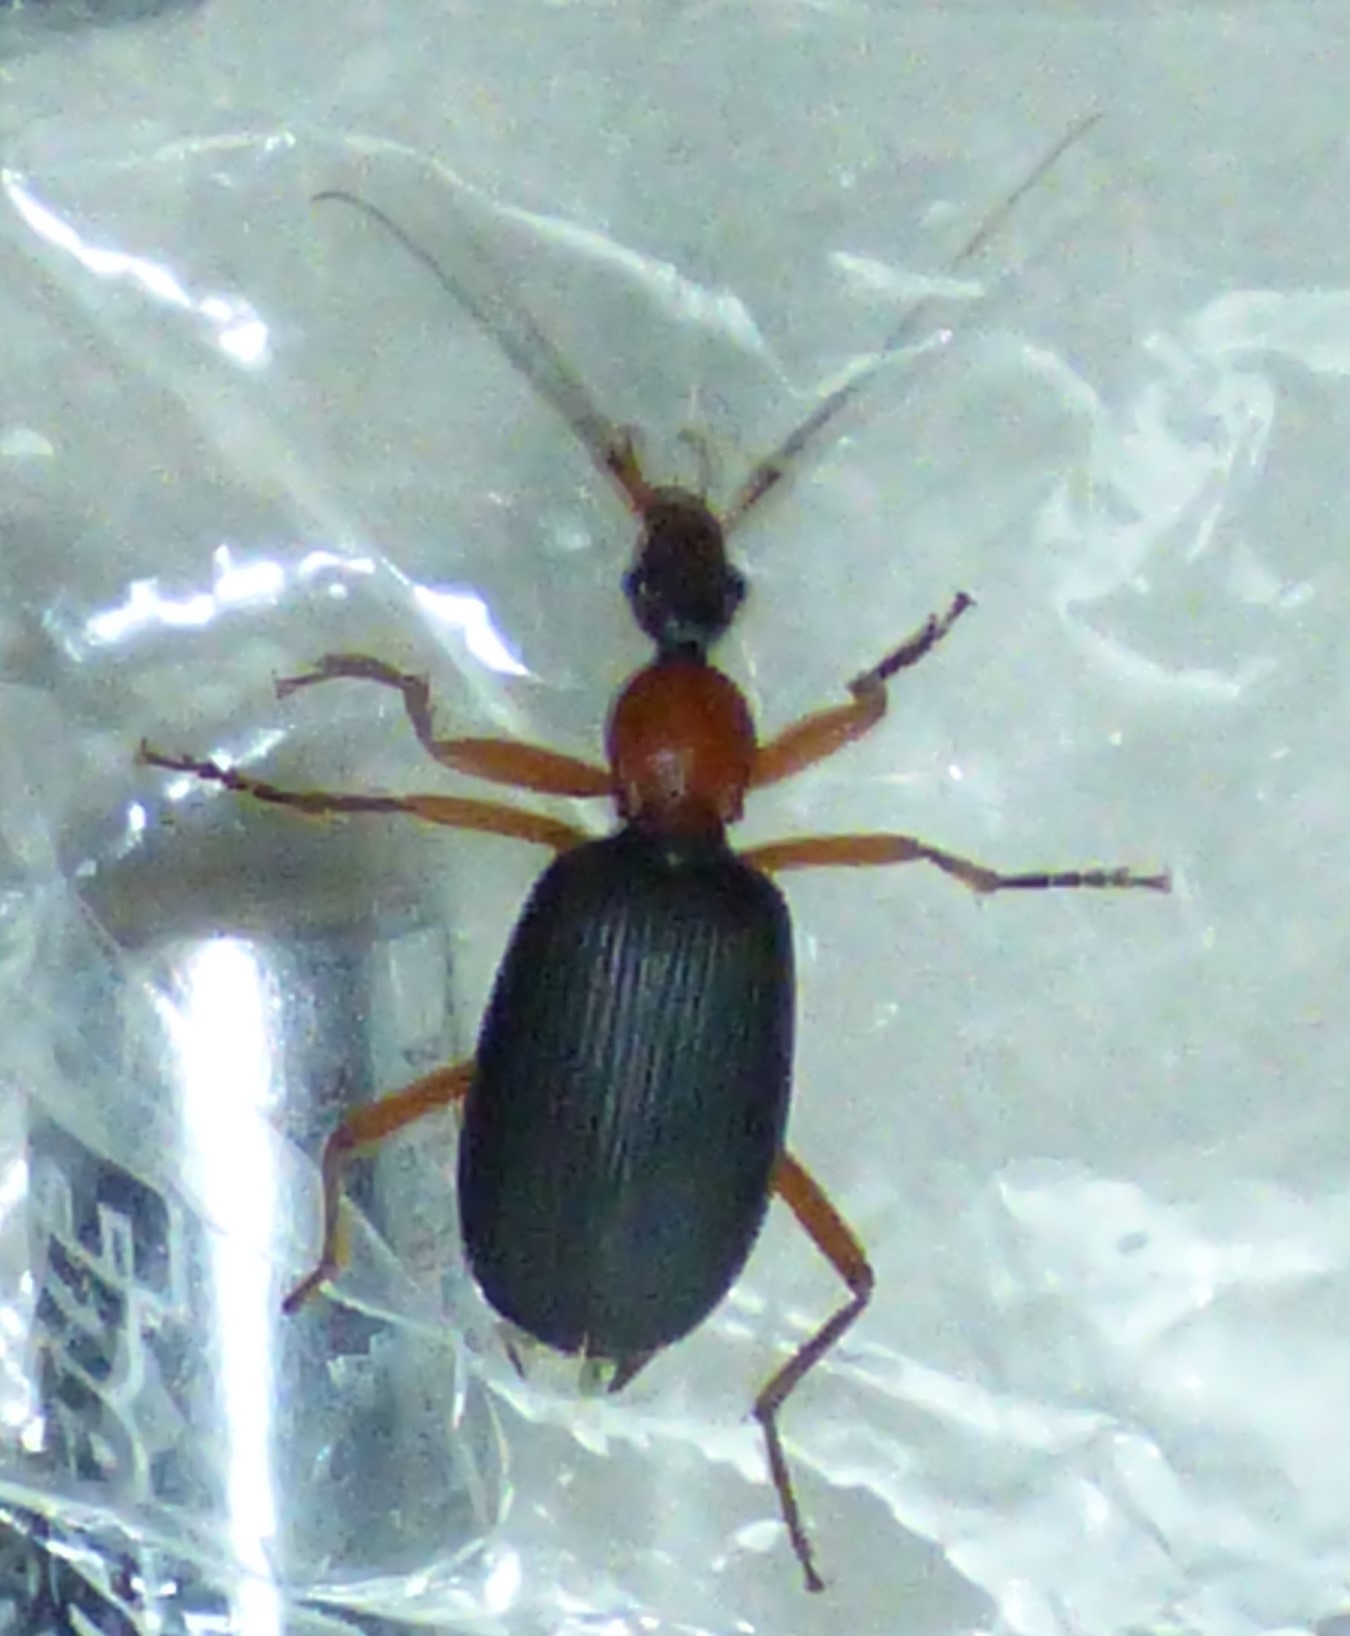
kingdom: Animalia
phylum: Arthropoda
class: Insecta
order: Coleoptera
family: Carabidae
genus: Galerita
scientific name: Galerita bicolor
